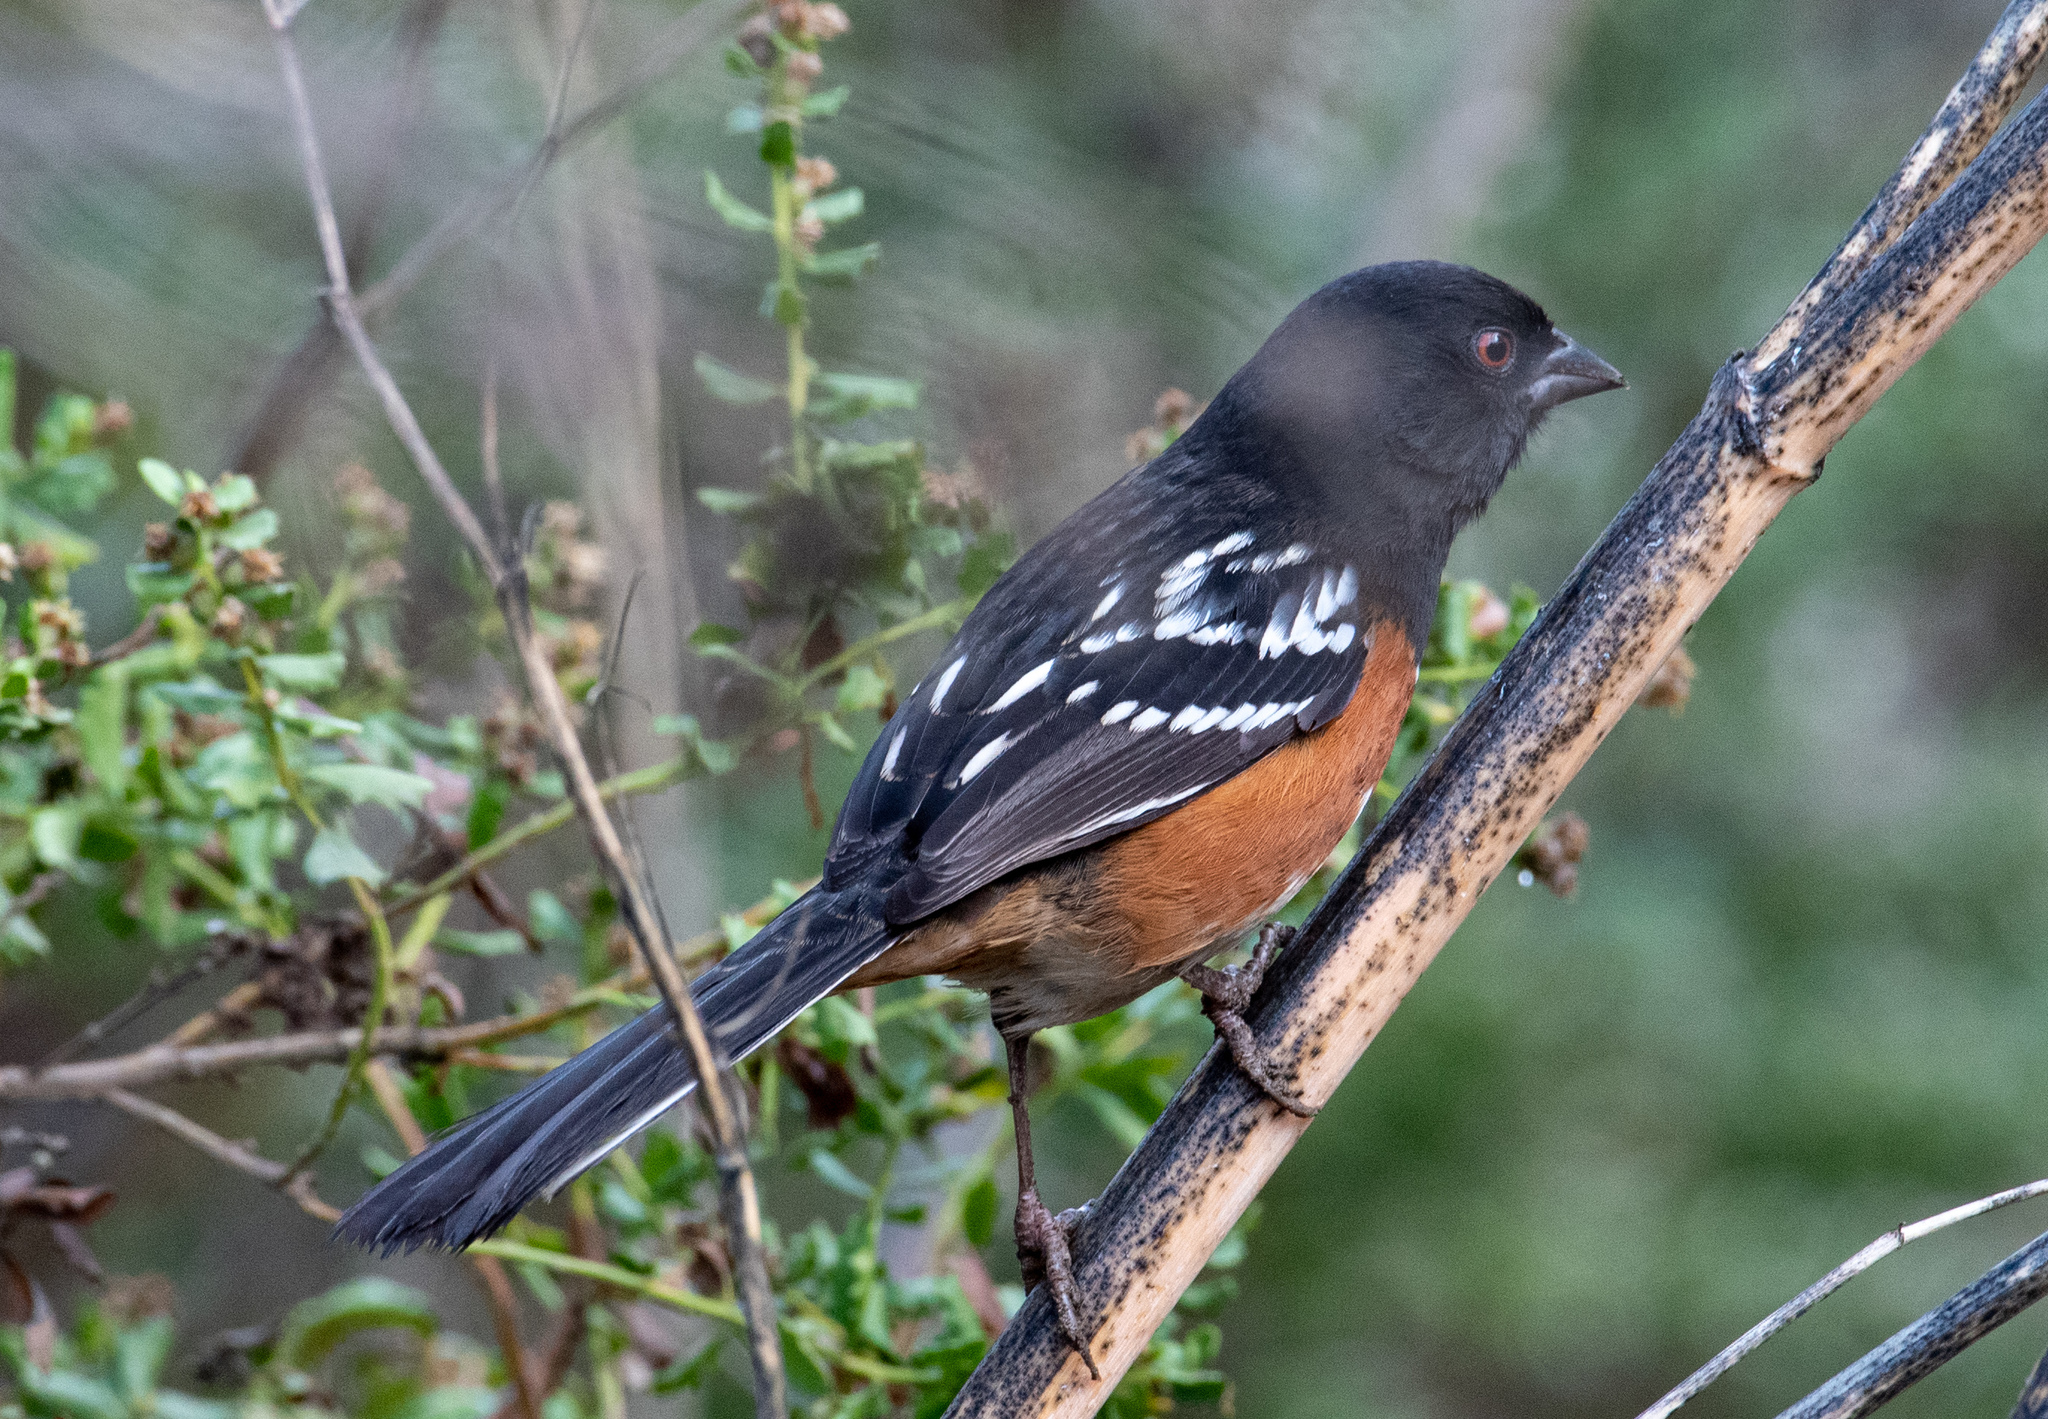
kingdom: Animalia
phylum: Chordata
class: Aves
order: Passeriformes
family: Passerellidae
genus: Pipilo
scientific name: Pipilo maculatus
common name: Spotted towhee
